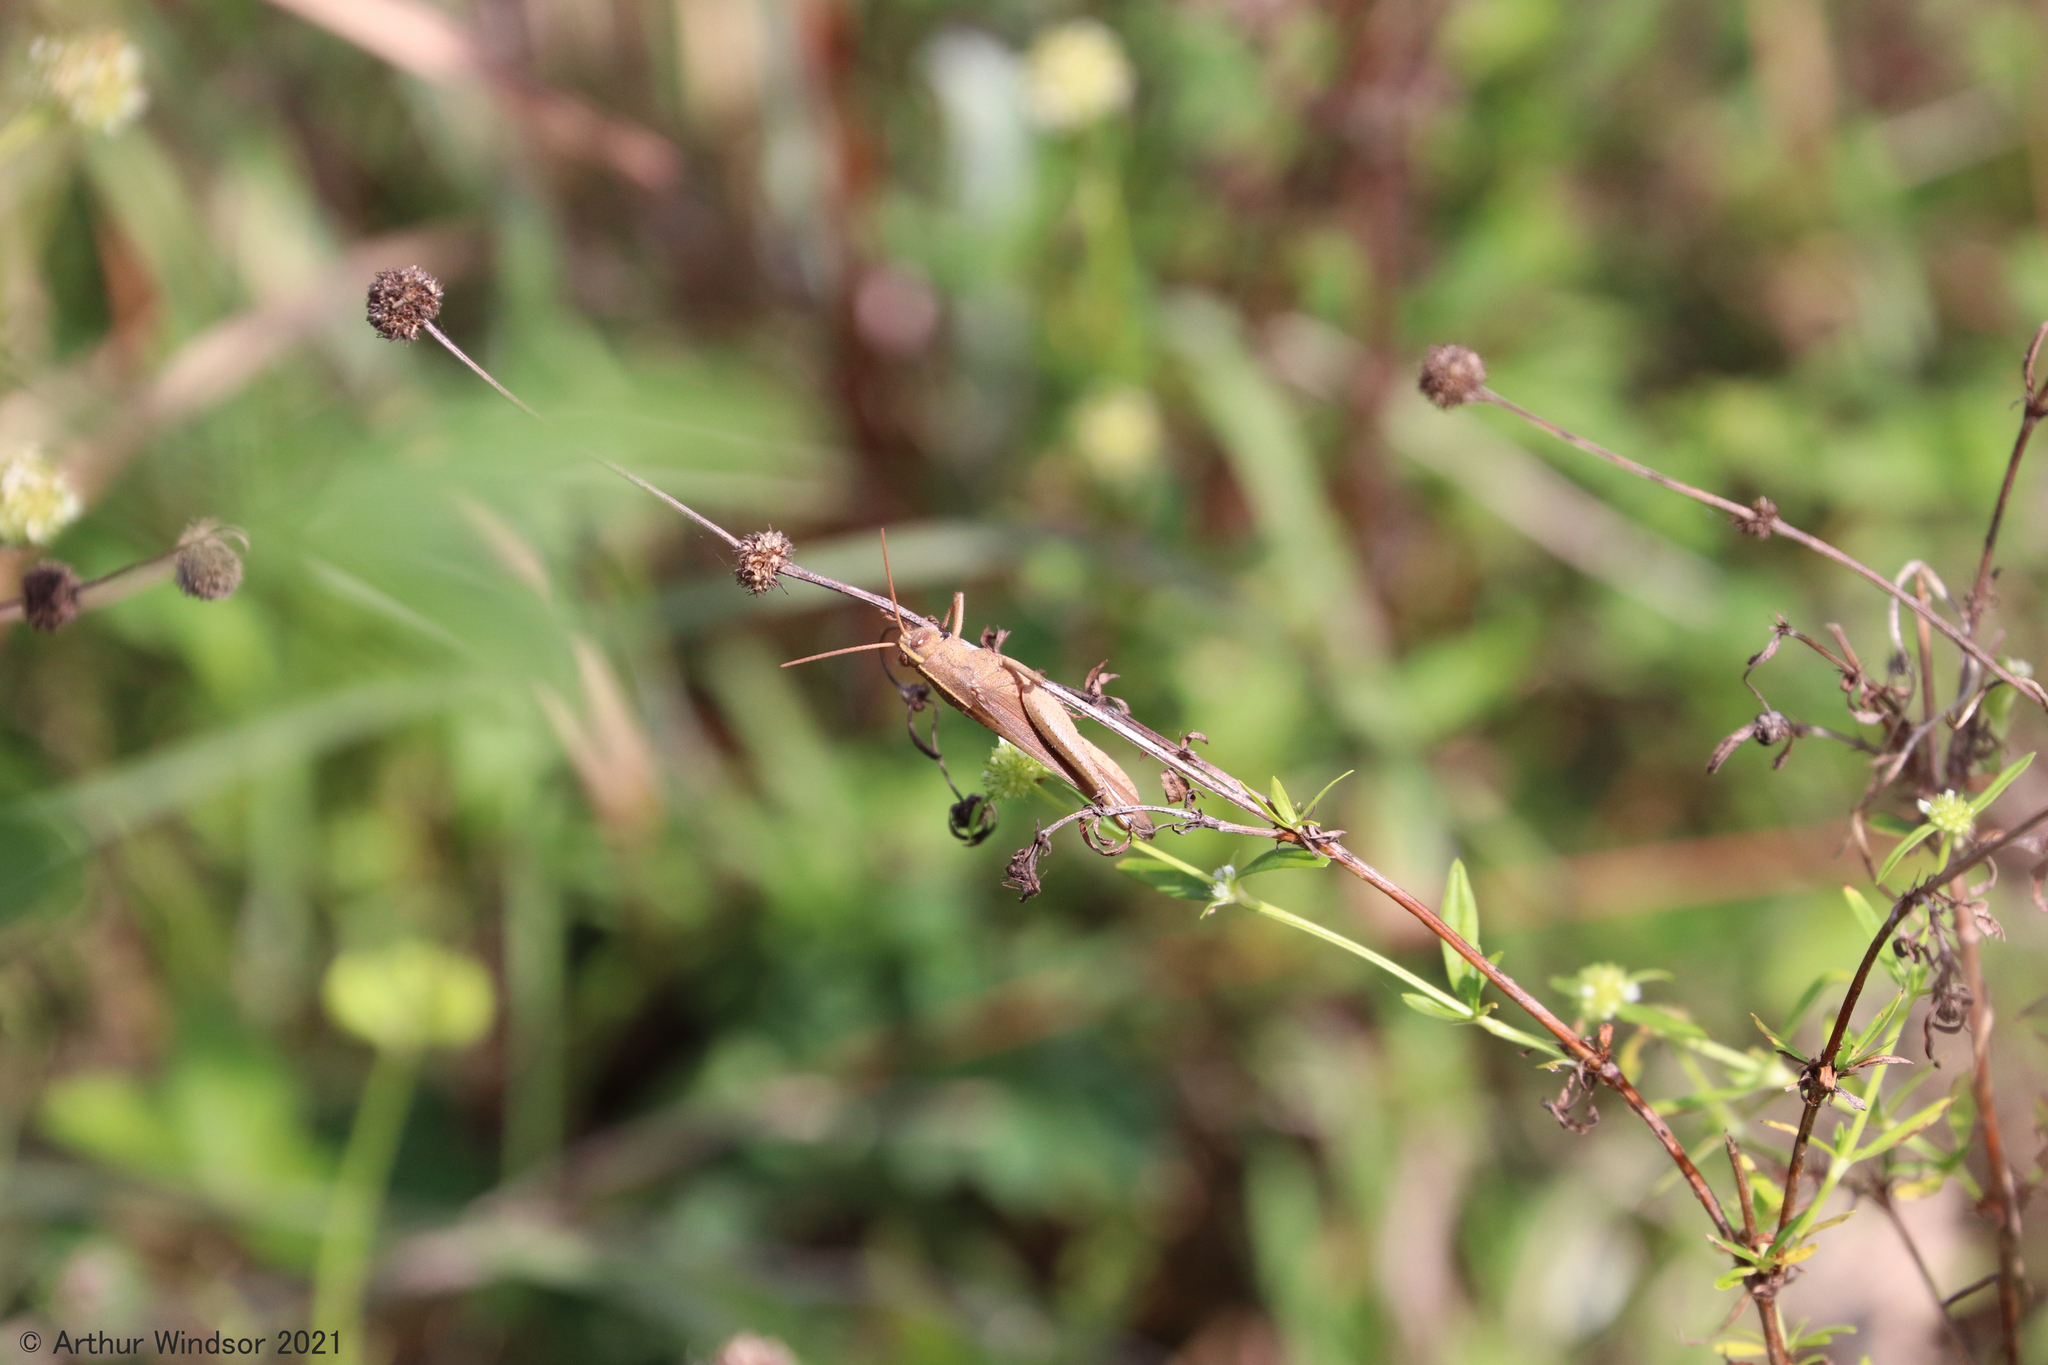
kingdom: Animalia
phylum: Arthropoda
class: Insecta
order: Orthoptera
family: Acrididae
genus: Schistocerca
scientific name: Schistocerca damnifica
